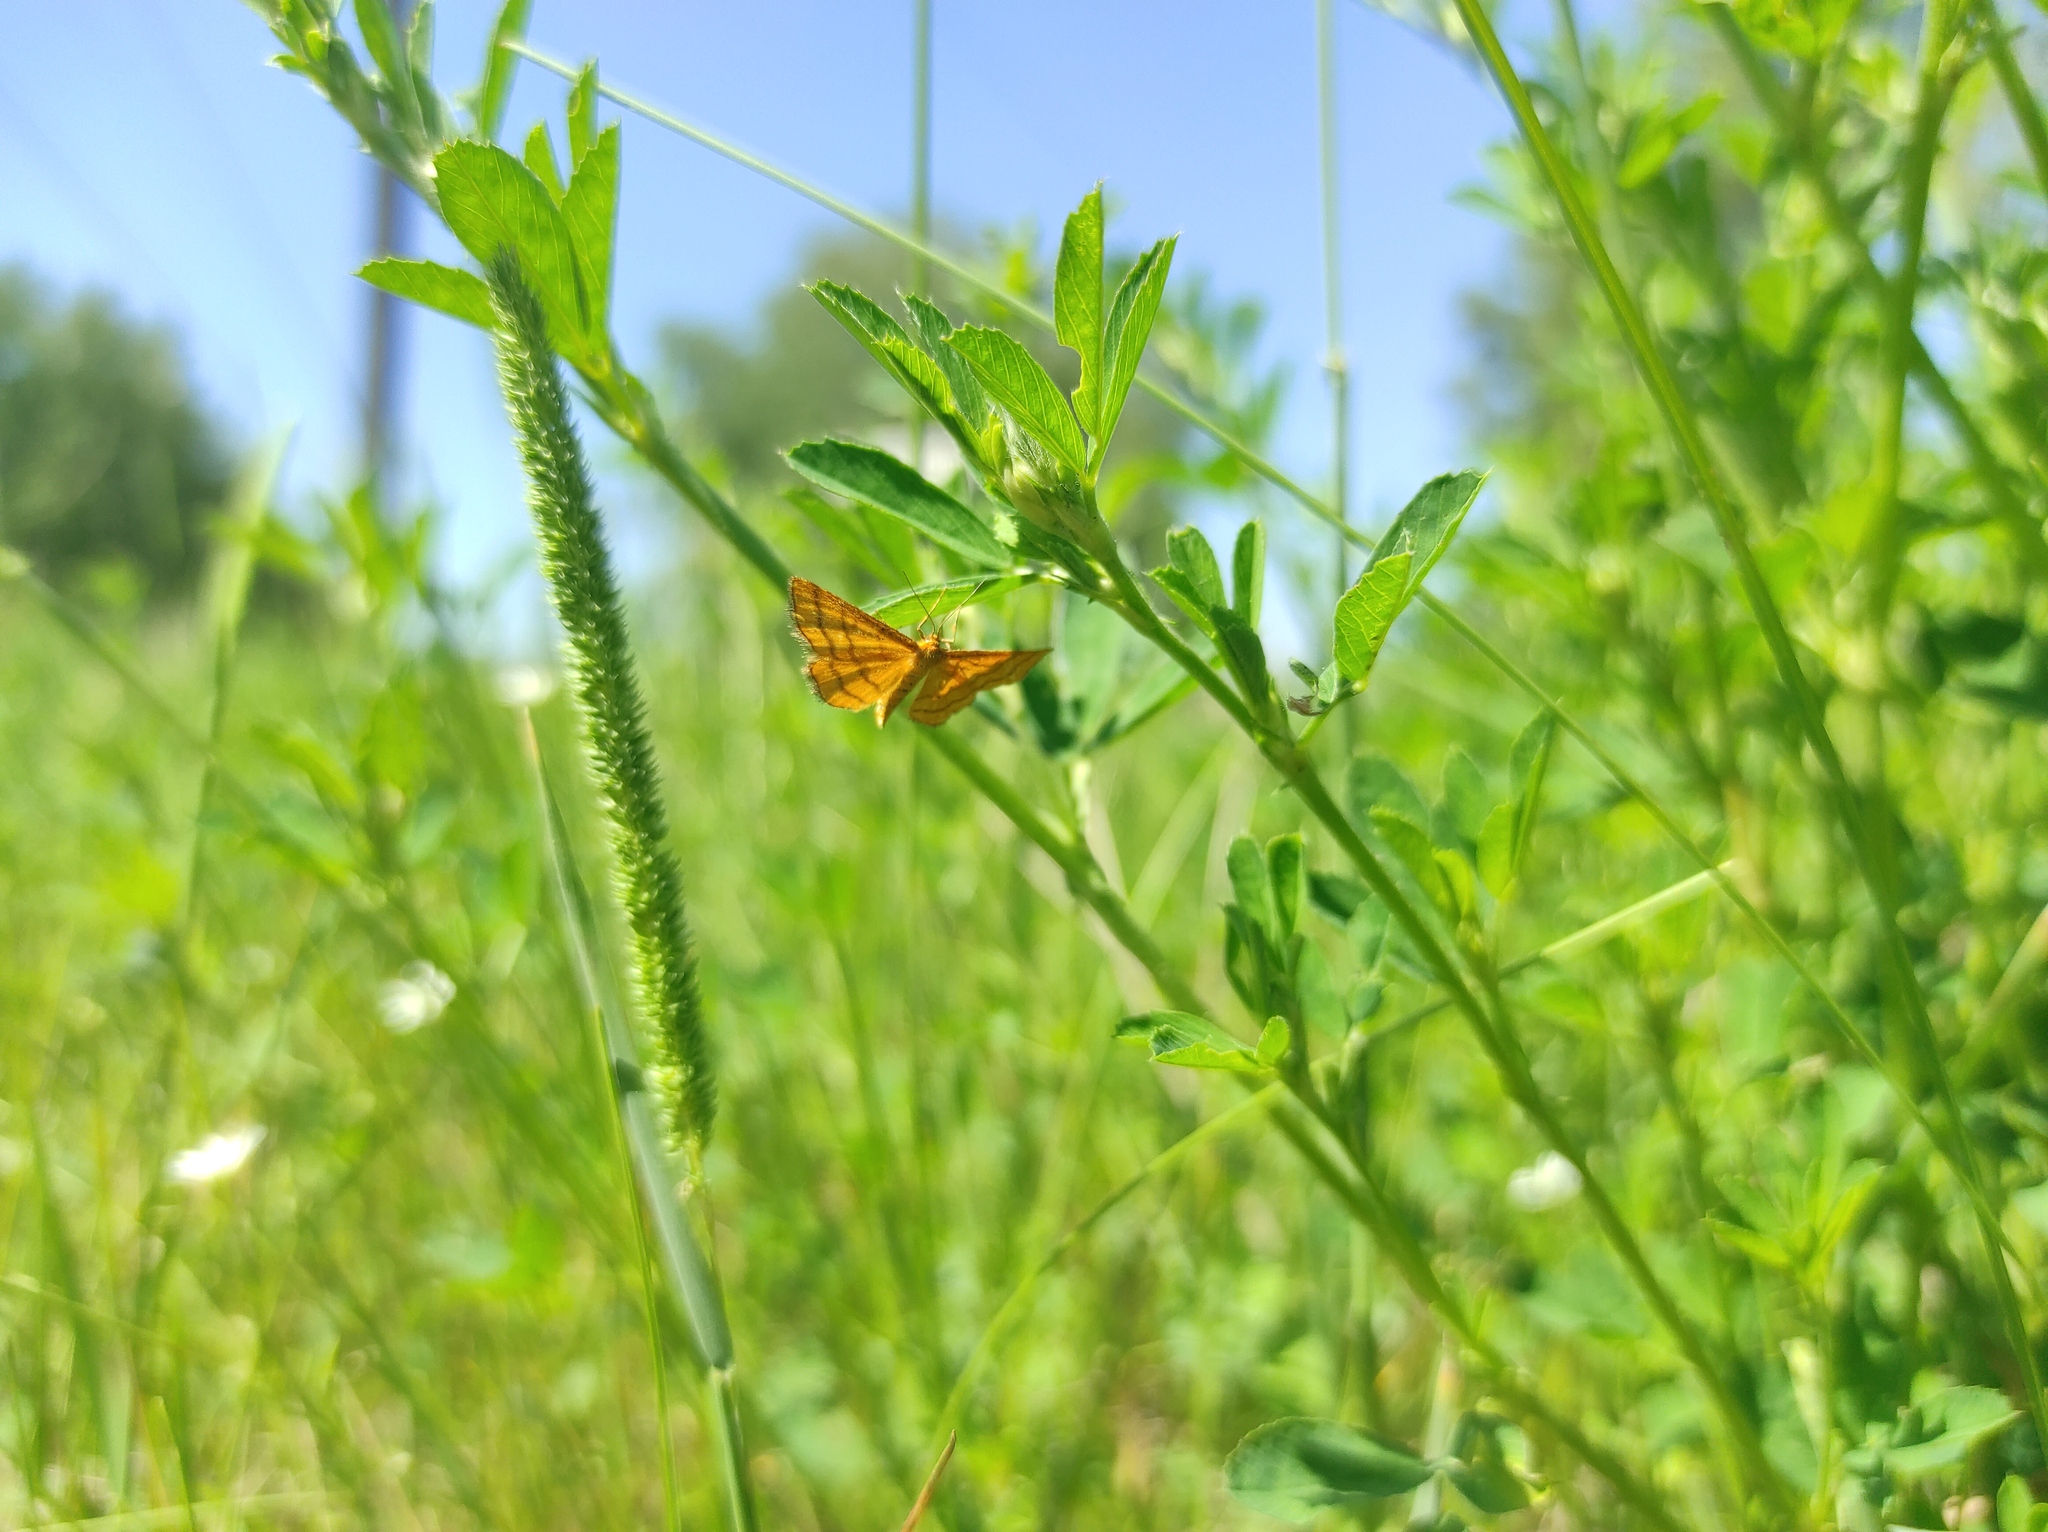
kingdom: Animalia
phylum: Arthropoda
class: Insecta
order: Lepidoptera
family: Geometridae
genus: Idaea
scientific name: Idaea aureolaria
